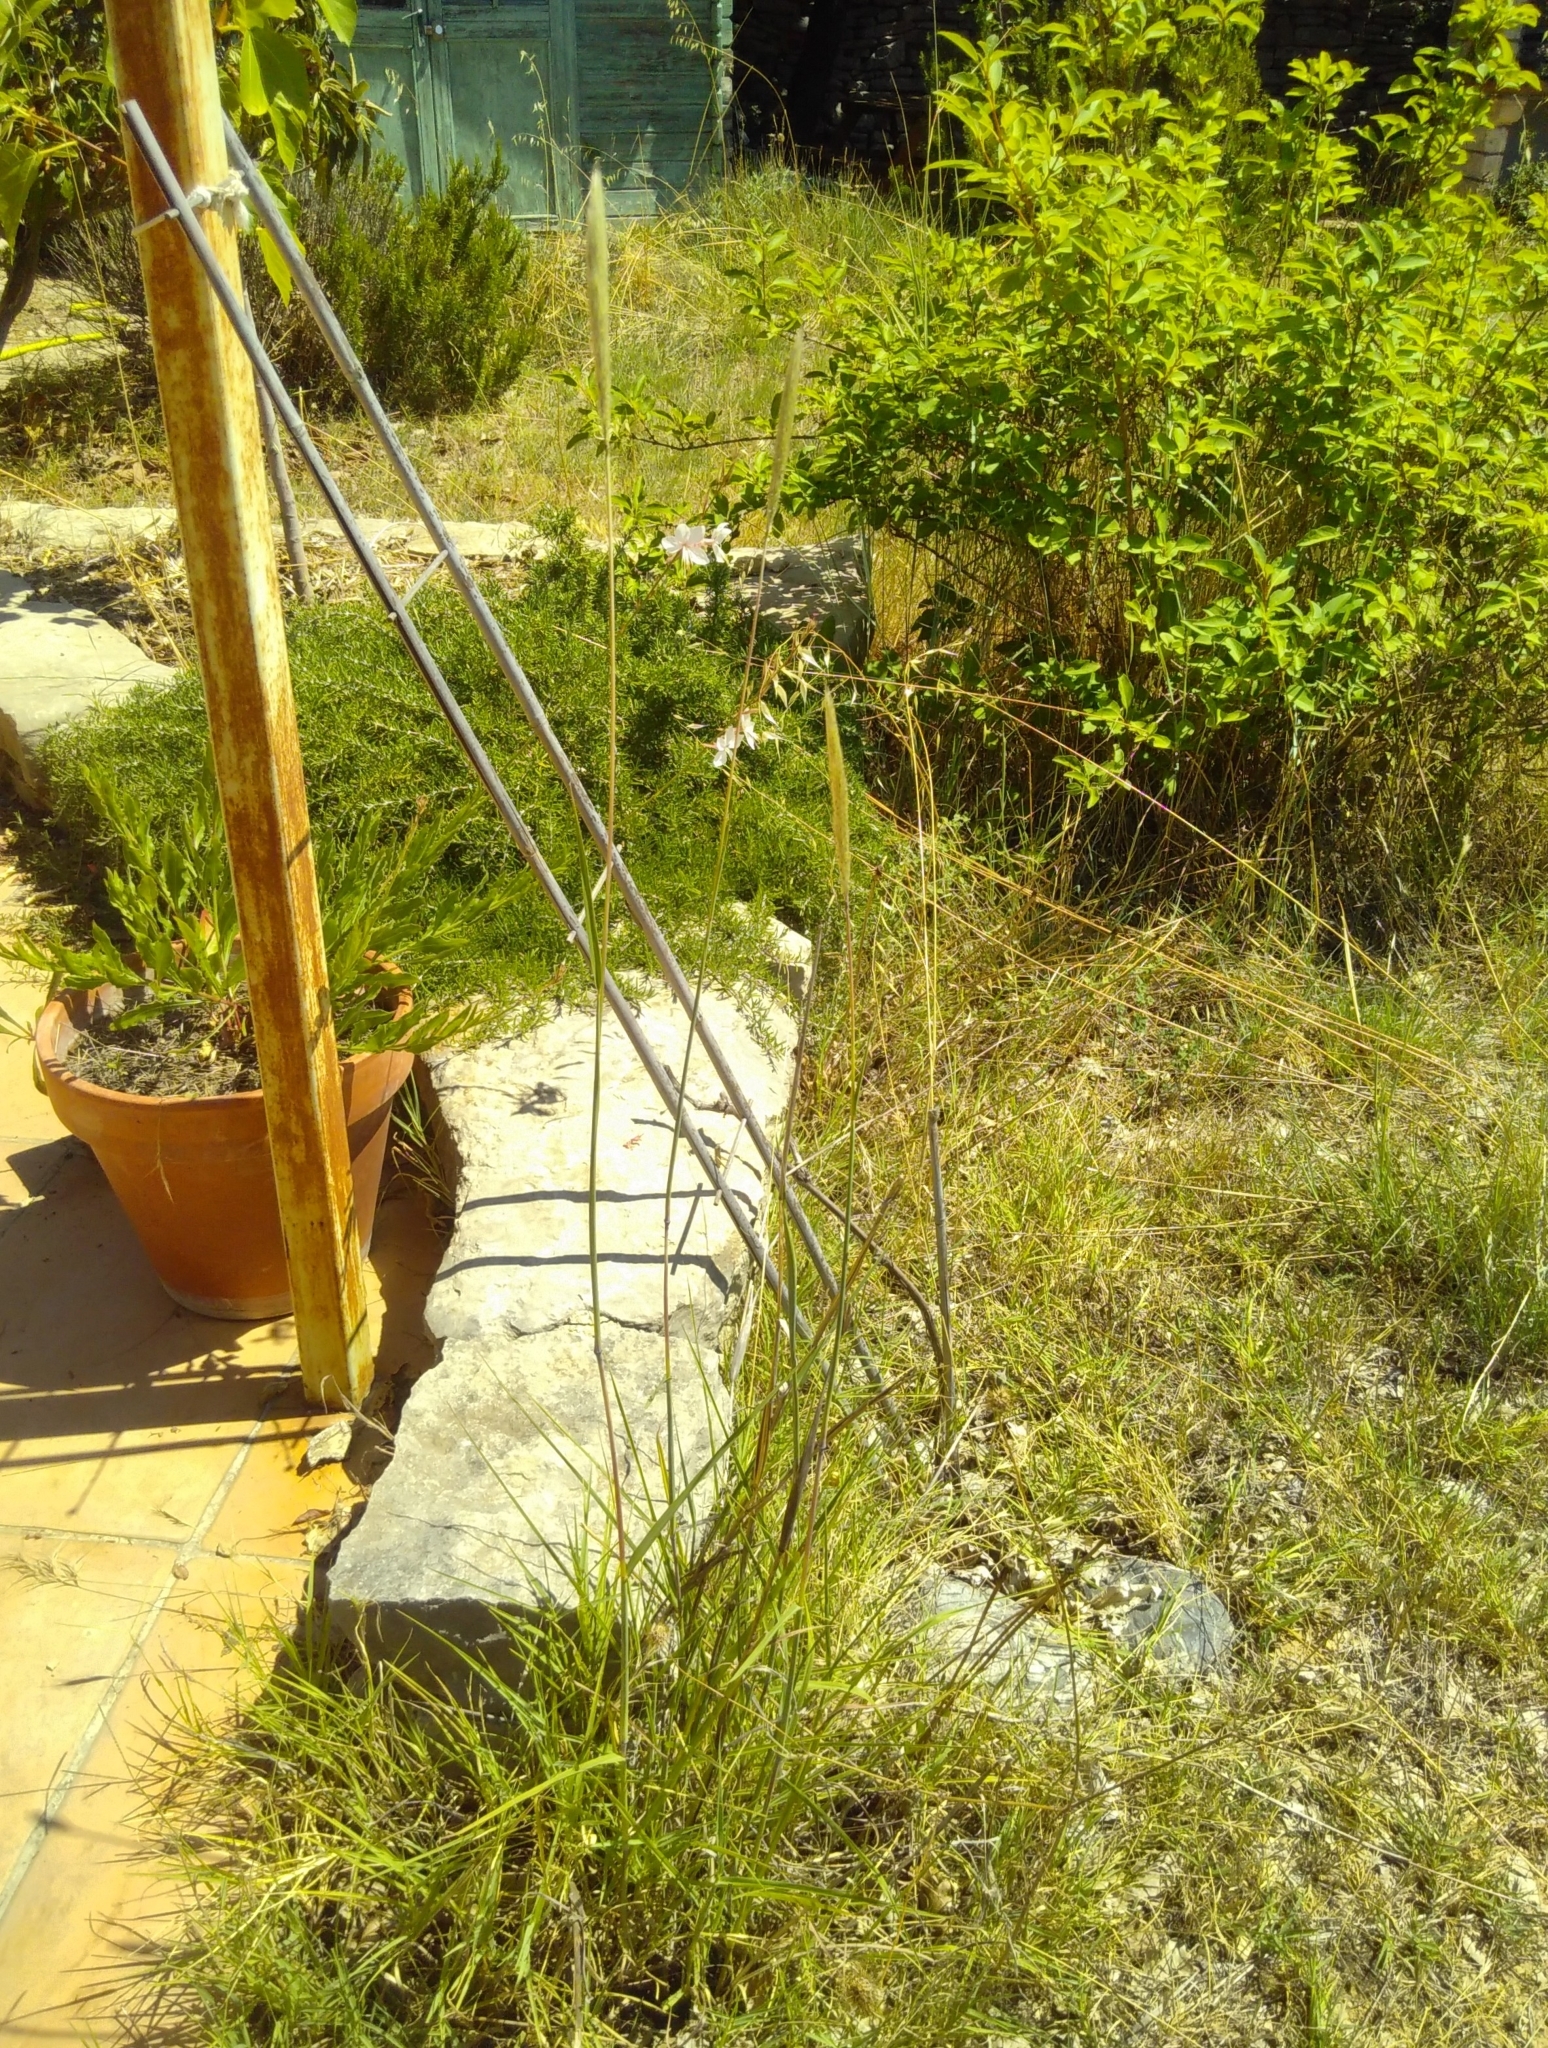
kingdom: Plantae
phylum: Tracheophyta
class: Liliopsida
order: Poales
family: Poaceae
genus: Bothriochloa
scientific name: Bothriochloa barbinodis
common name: Cane bluestem
